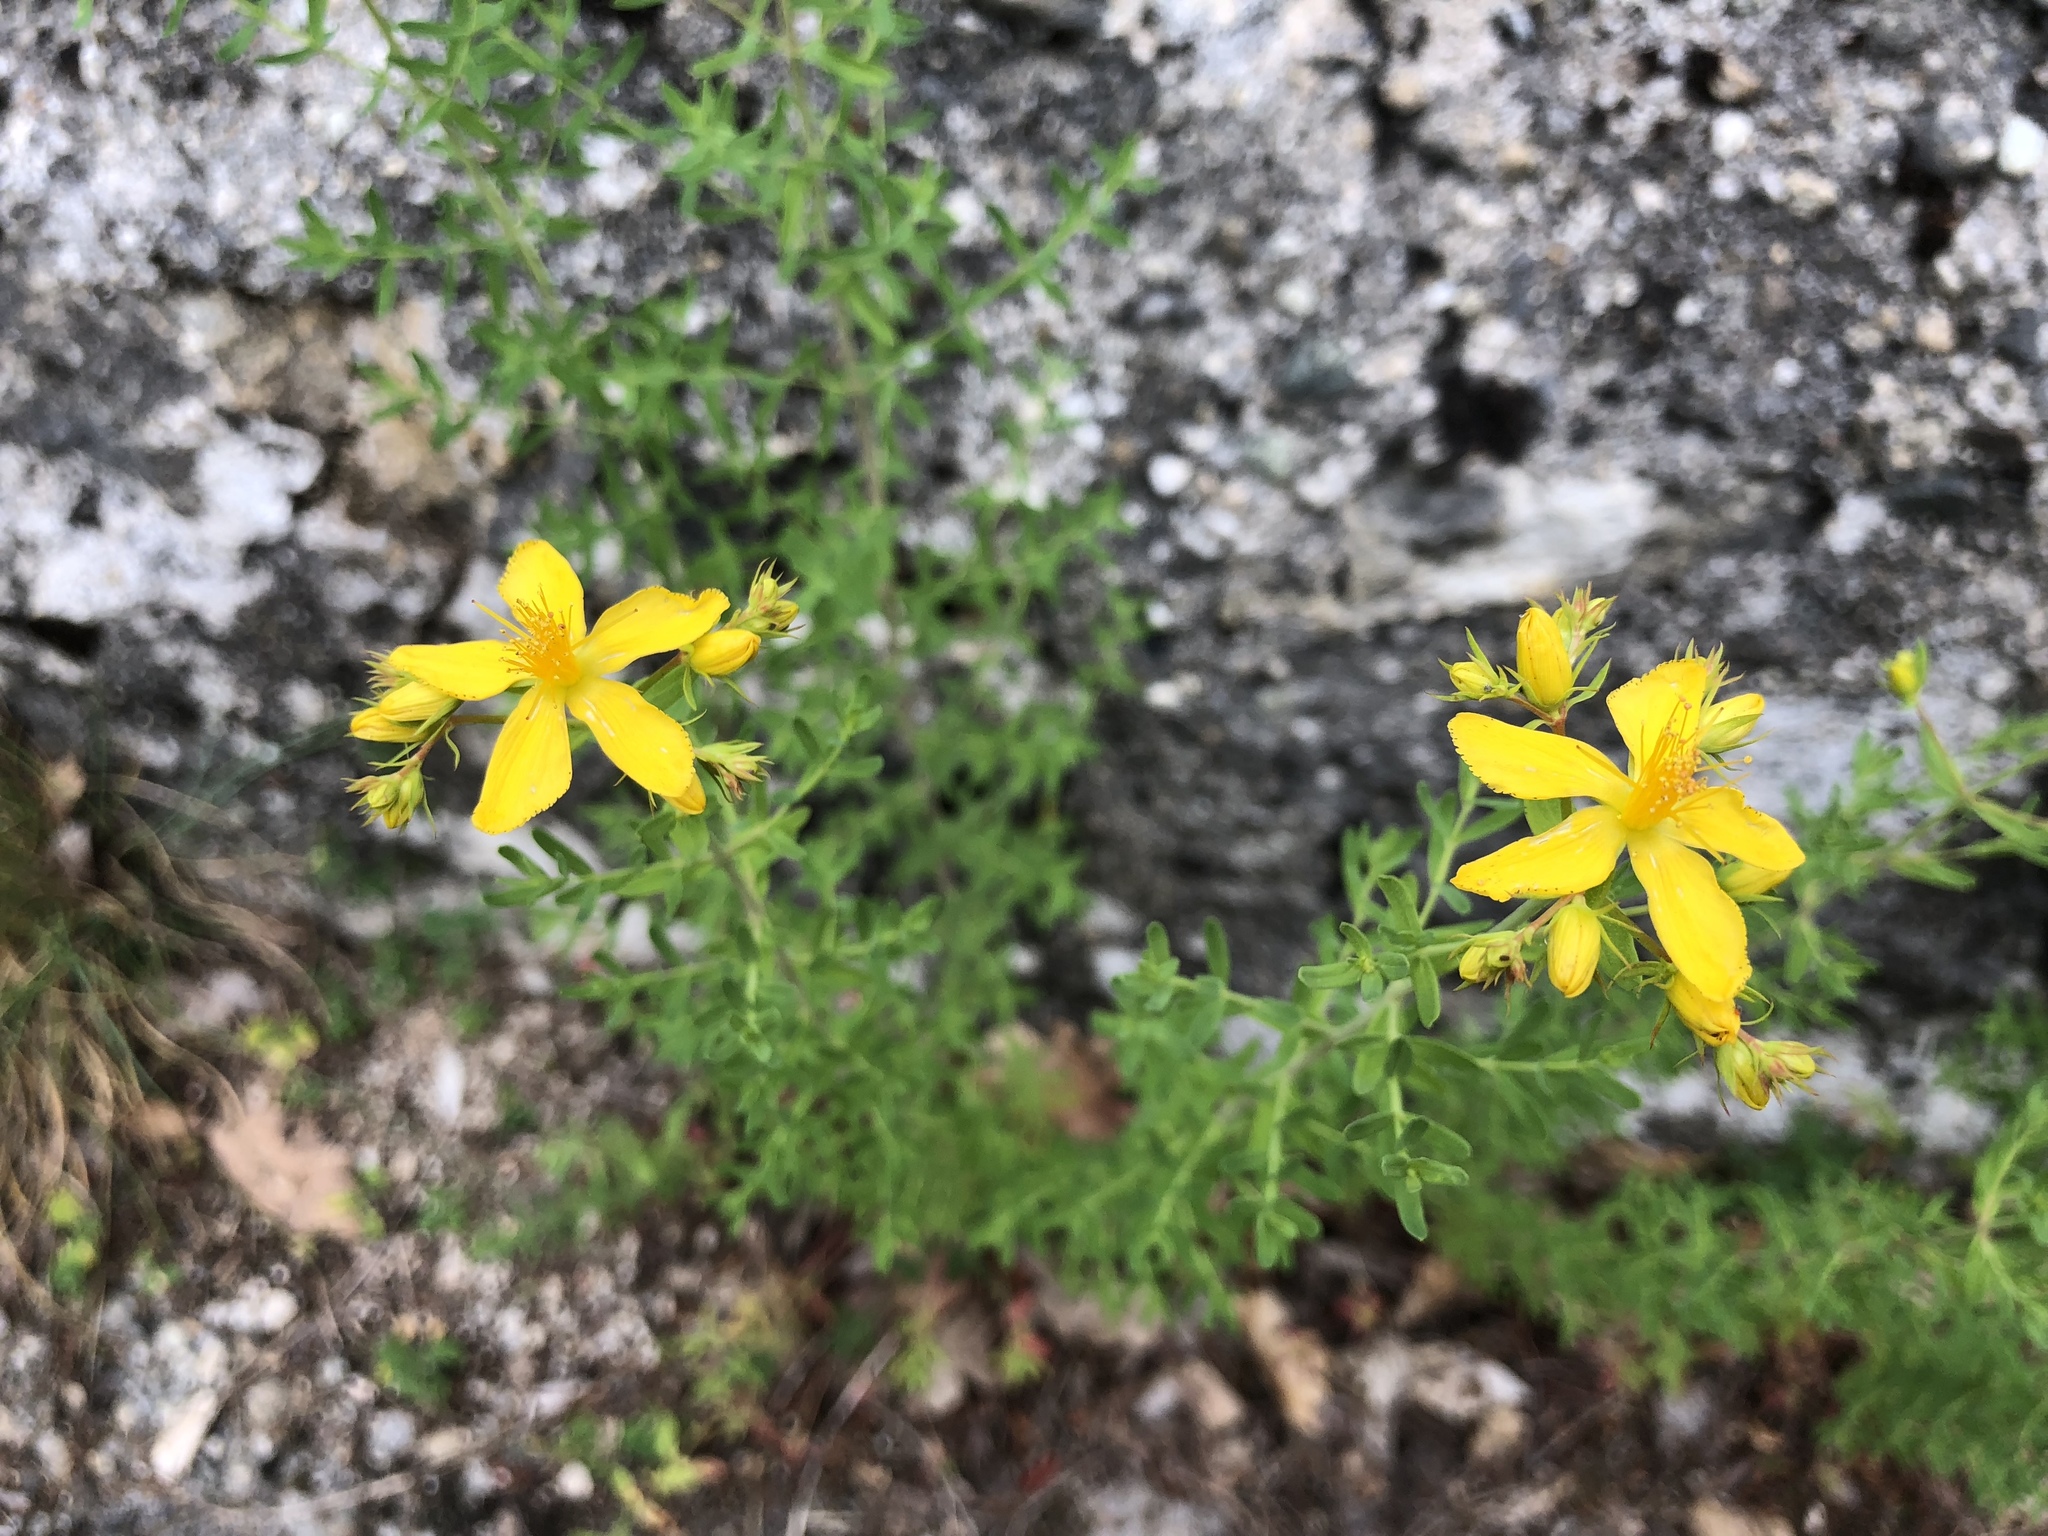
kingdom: Plantae
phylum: Tracheophyta
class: Magnoliopsida
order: Malpighiales
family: Hypericaceae
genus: Hypericum
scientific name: Hypericum perforatum
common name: Common st. johnswort
